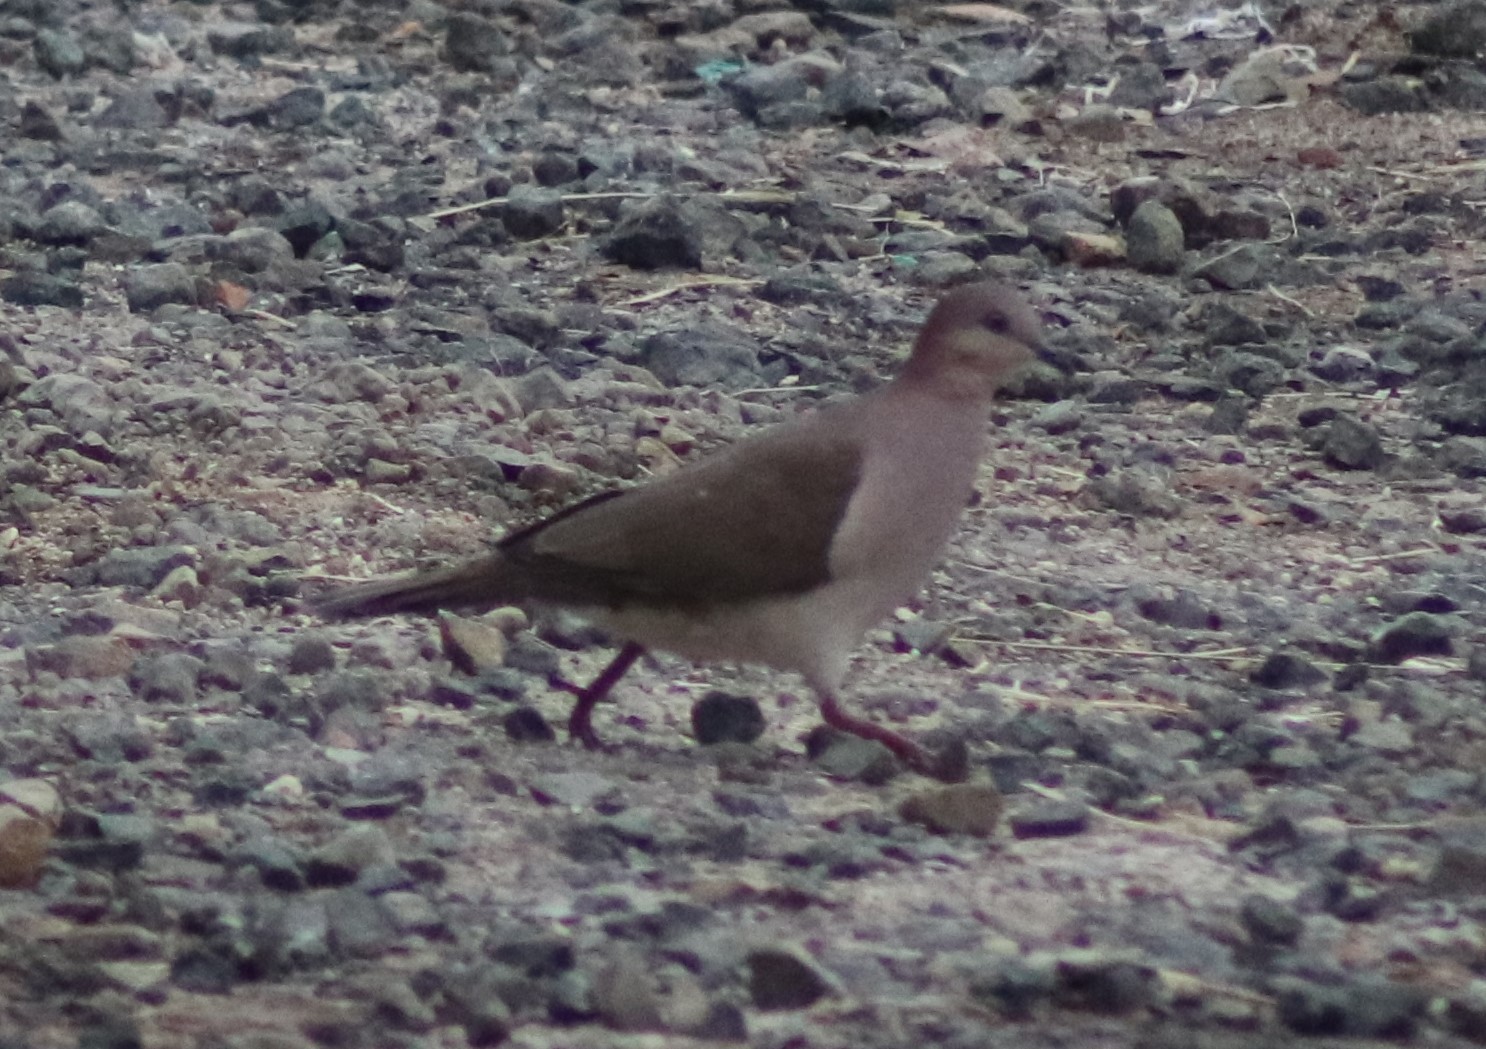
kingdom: Animalia
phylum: Chordata
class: Aves
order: Columbiformes
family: Columbidae
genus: Leptotila
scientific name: Leptotila verreauxi
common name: White-tipped dove
